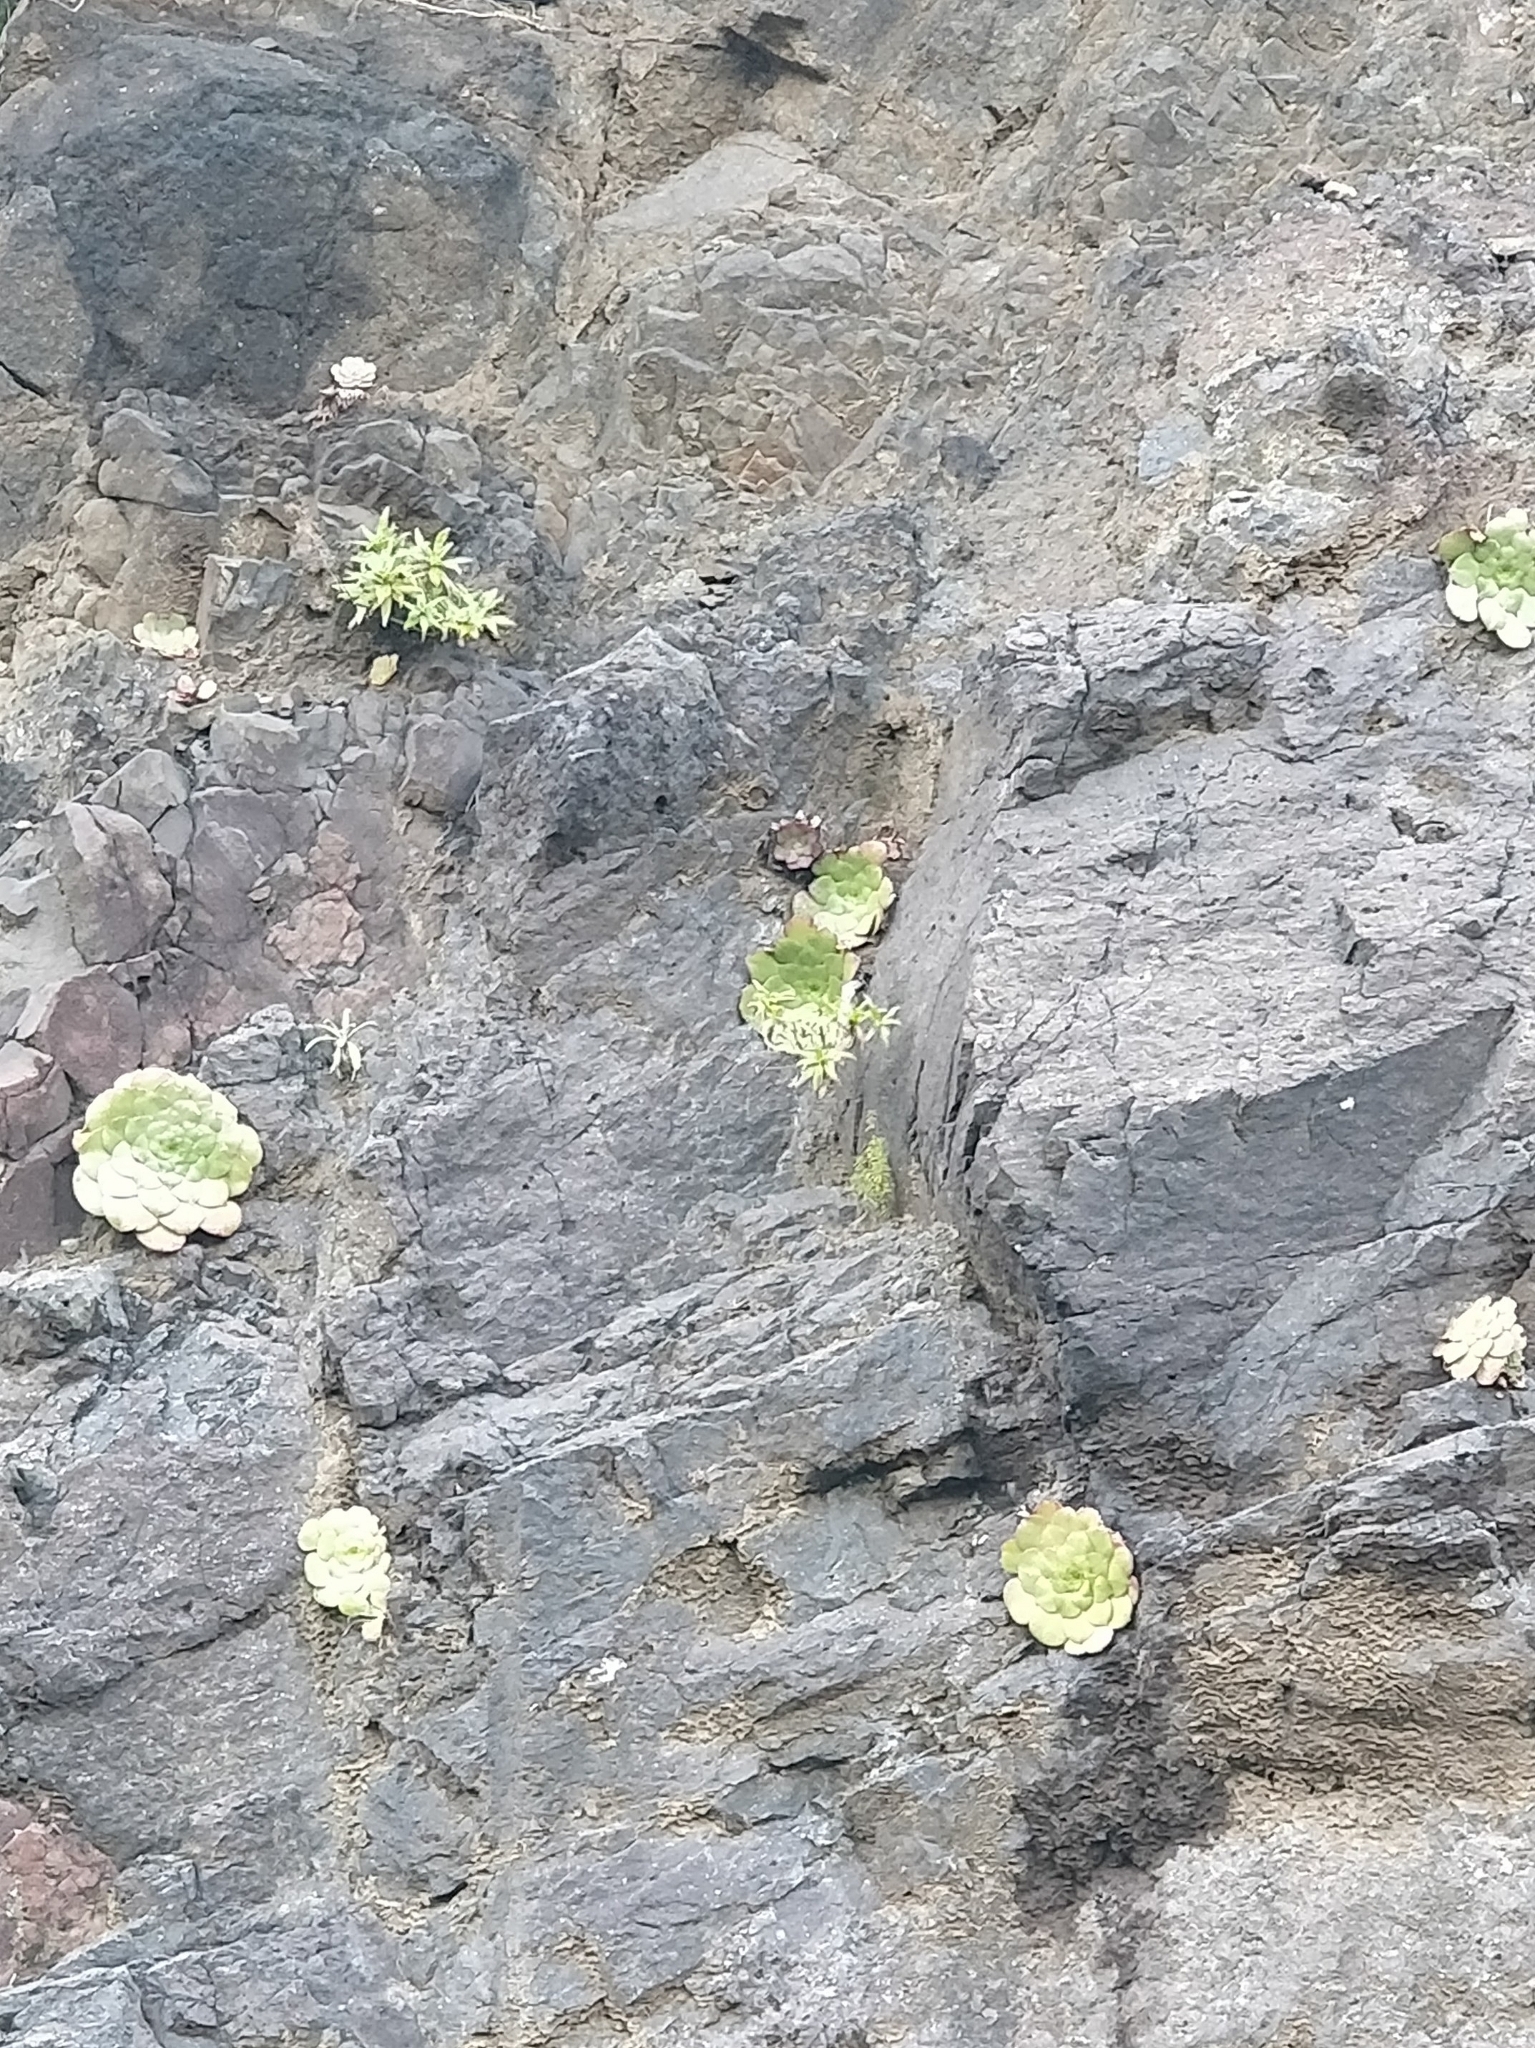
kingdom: Plantae
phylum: Tracheophyta
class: Magnoliopsida
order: Saxifragales
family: Crassulaceae
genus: Aeonium
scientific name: Aeonium glandulosum
